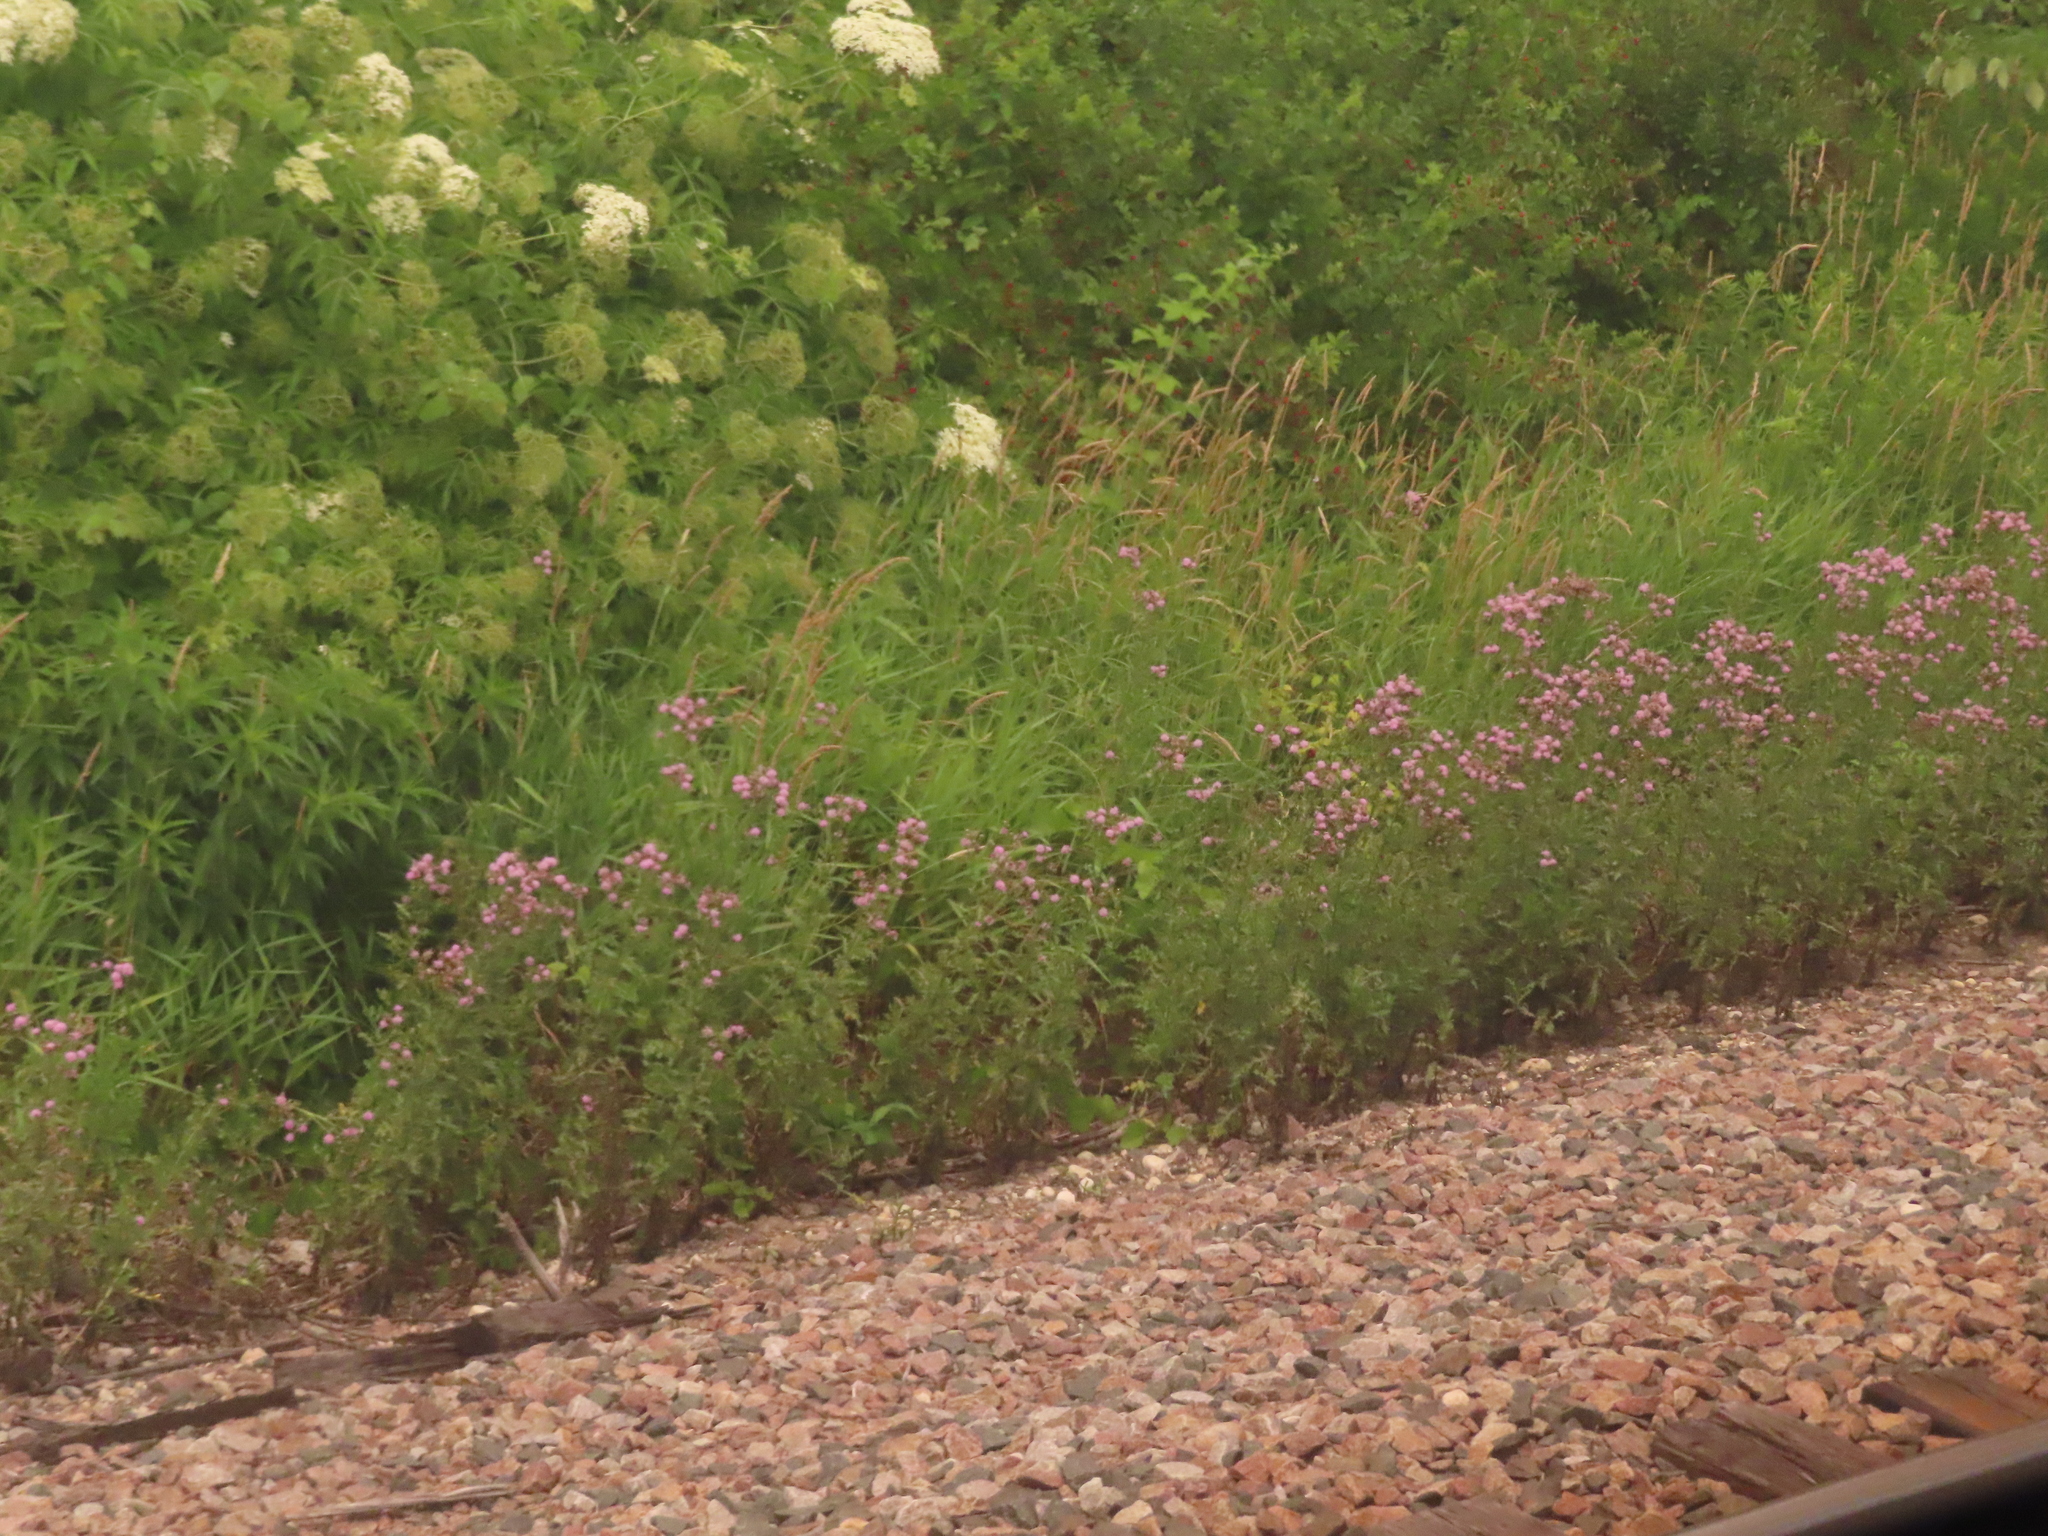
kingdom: Plantae
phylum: Tracheophyta
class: Magnoliopsida
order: Asterales
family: Asteraceae
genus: Cirsium
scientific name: Cirsium arvense
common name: Creeping thistle
